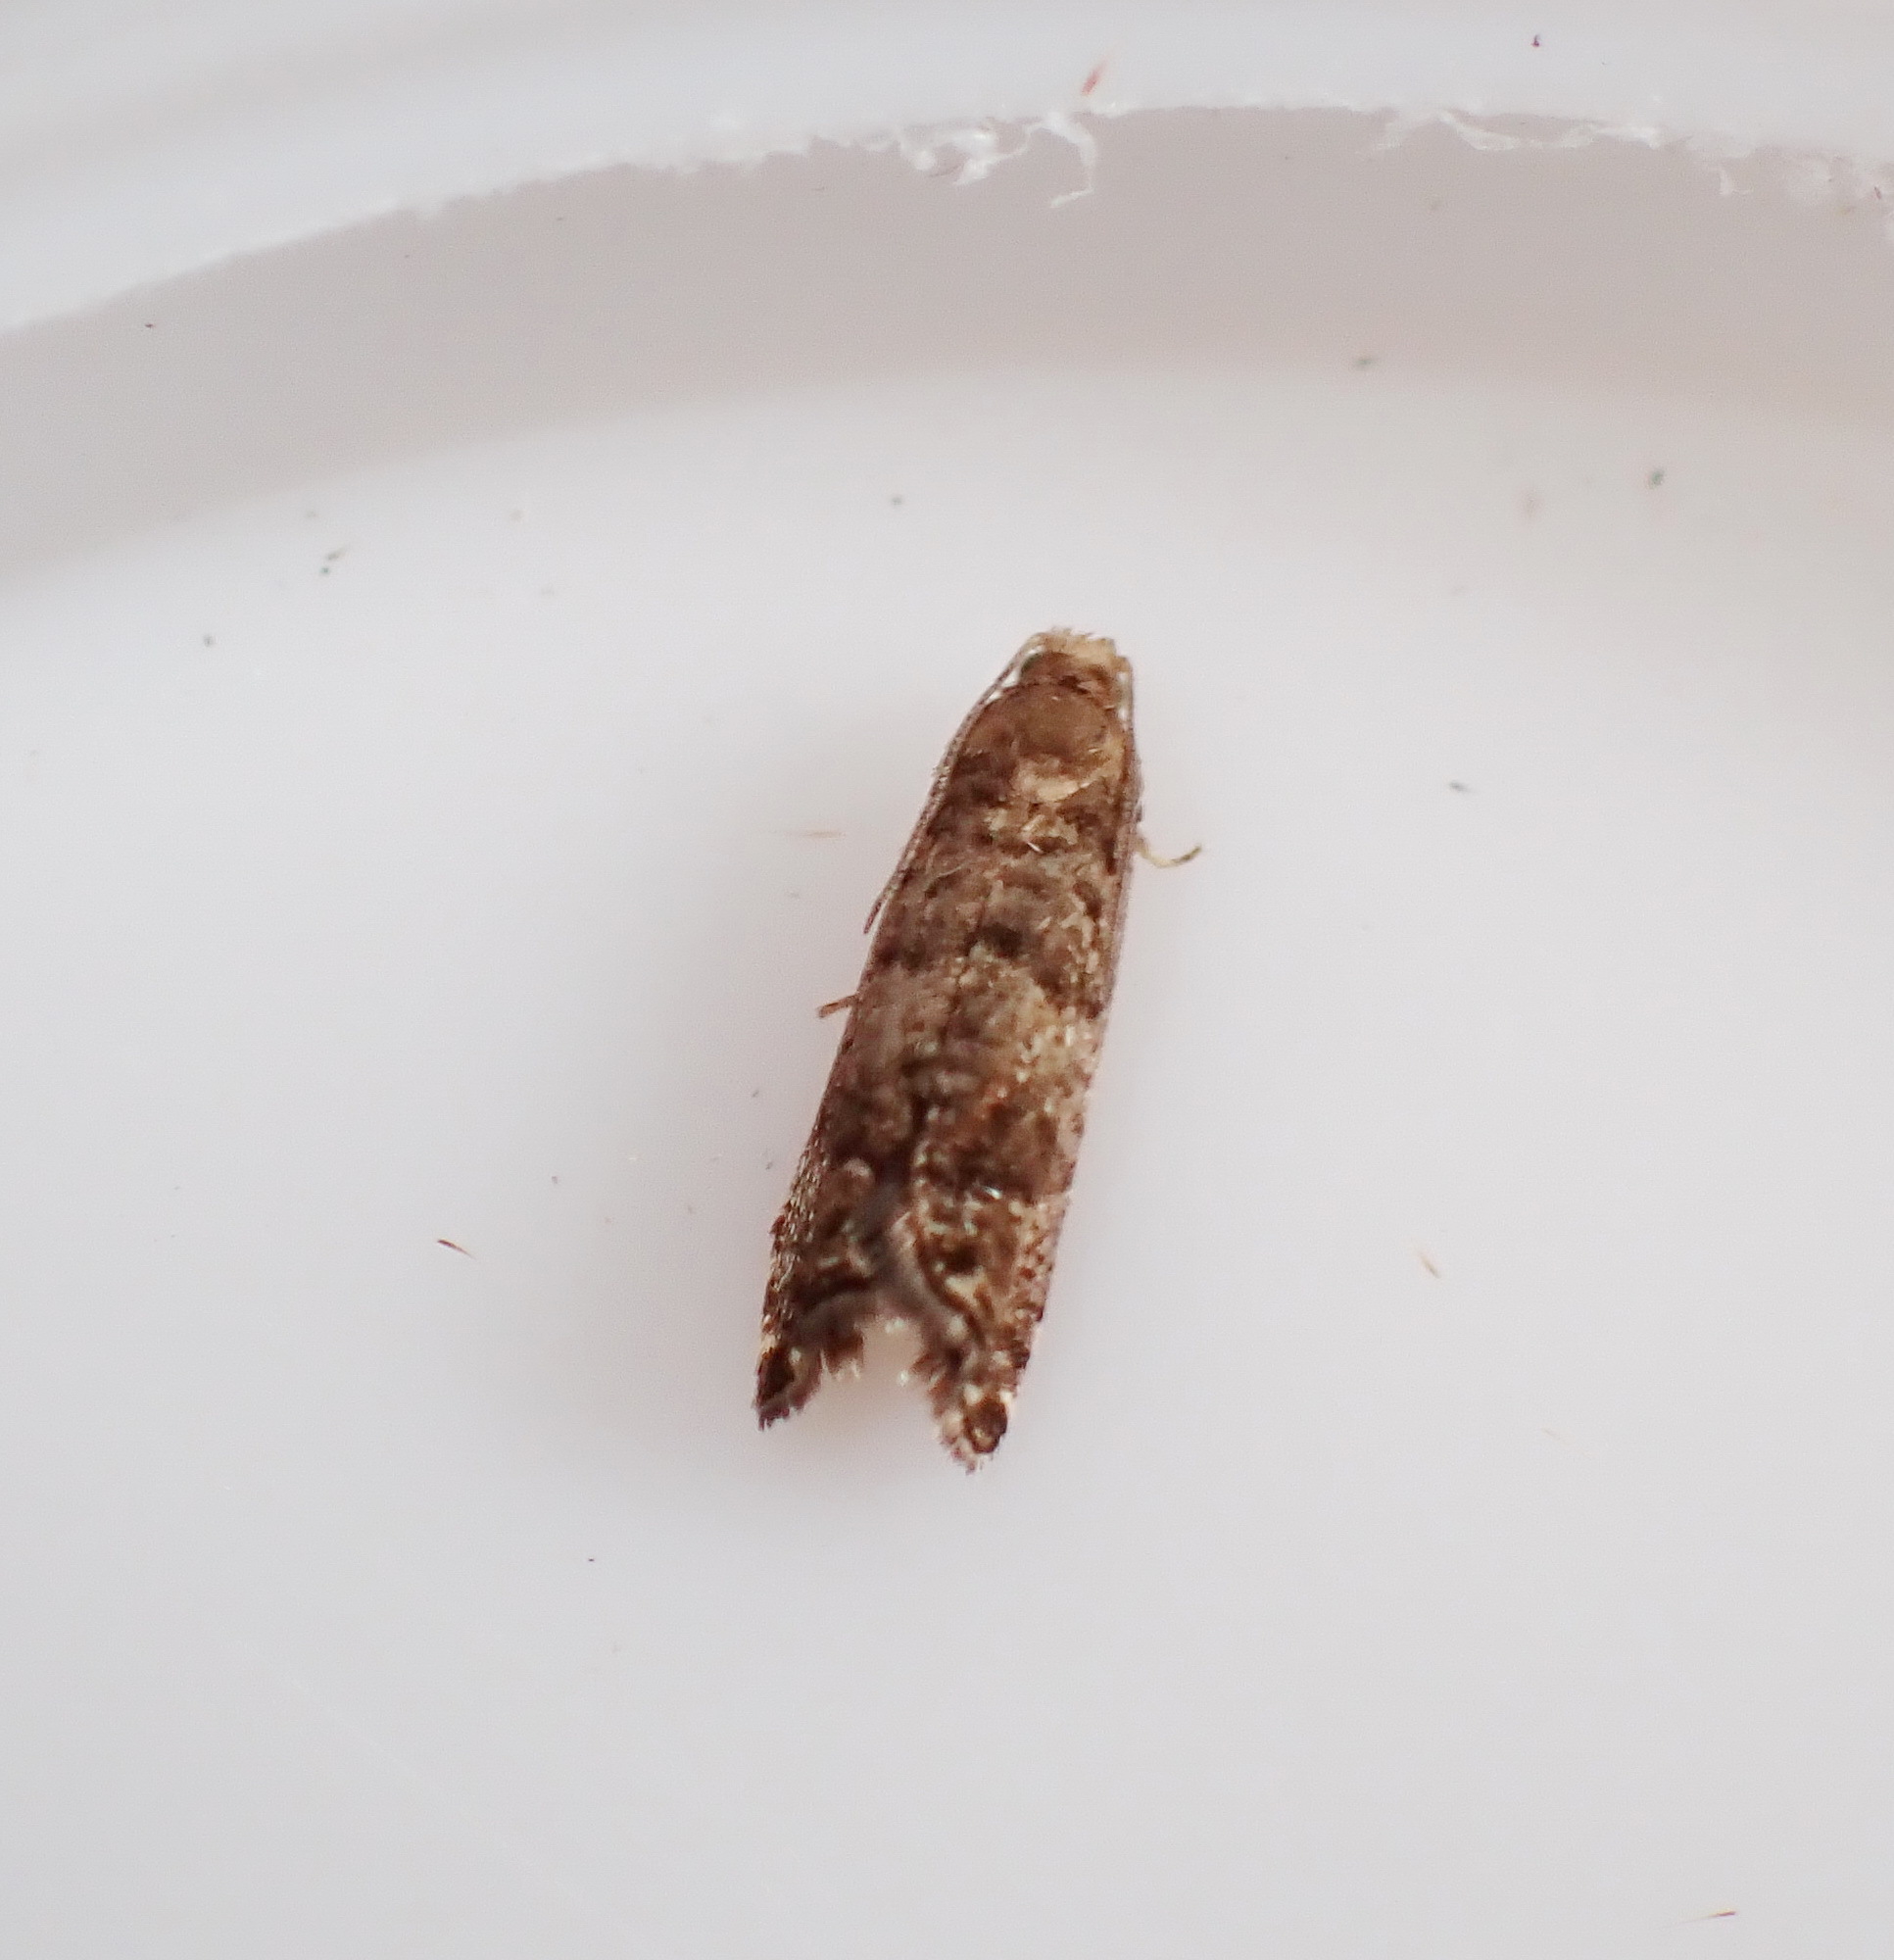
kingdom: Animalia
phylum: Arthropoda
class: Insecta
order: Lepidoptera
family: Noctuidae
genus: Aspila
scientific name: Aspila
